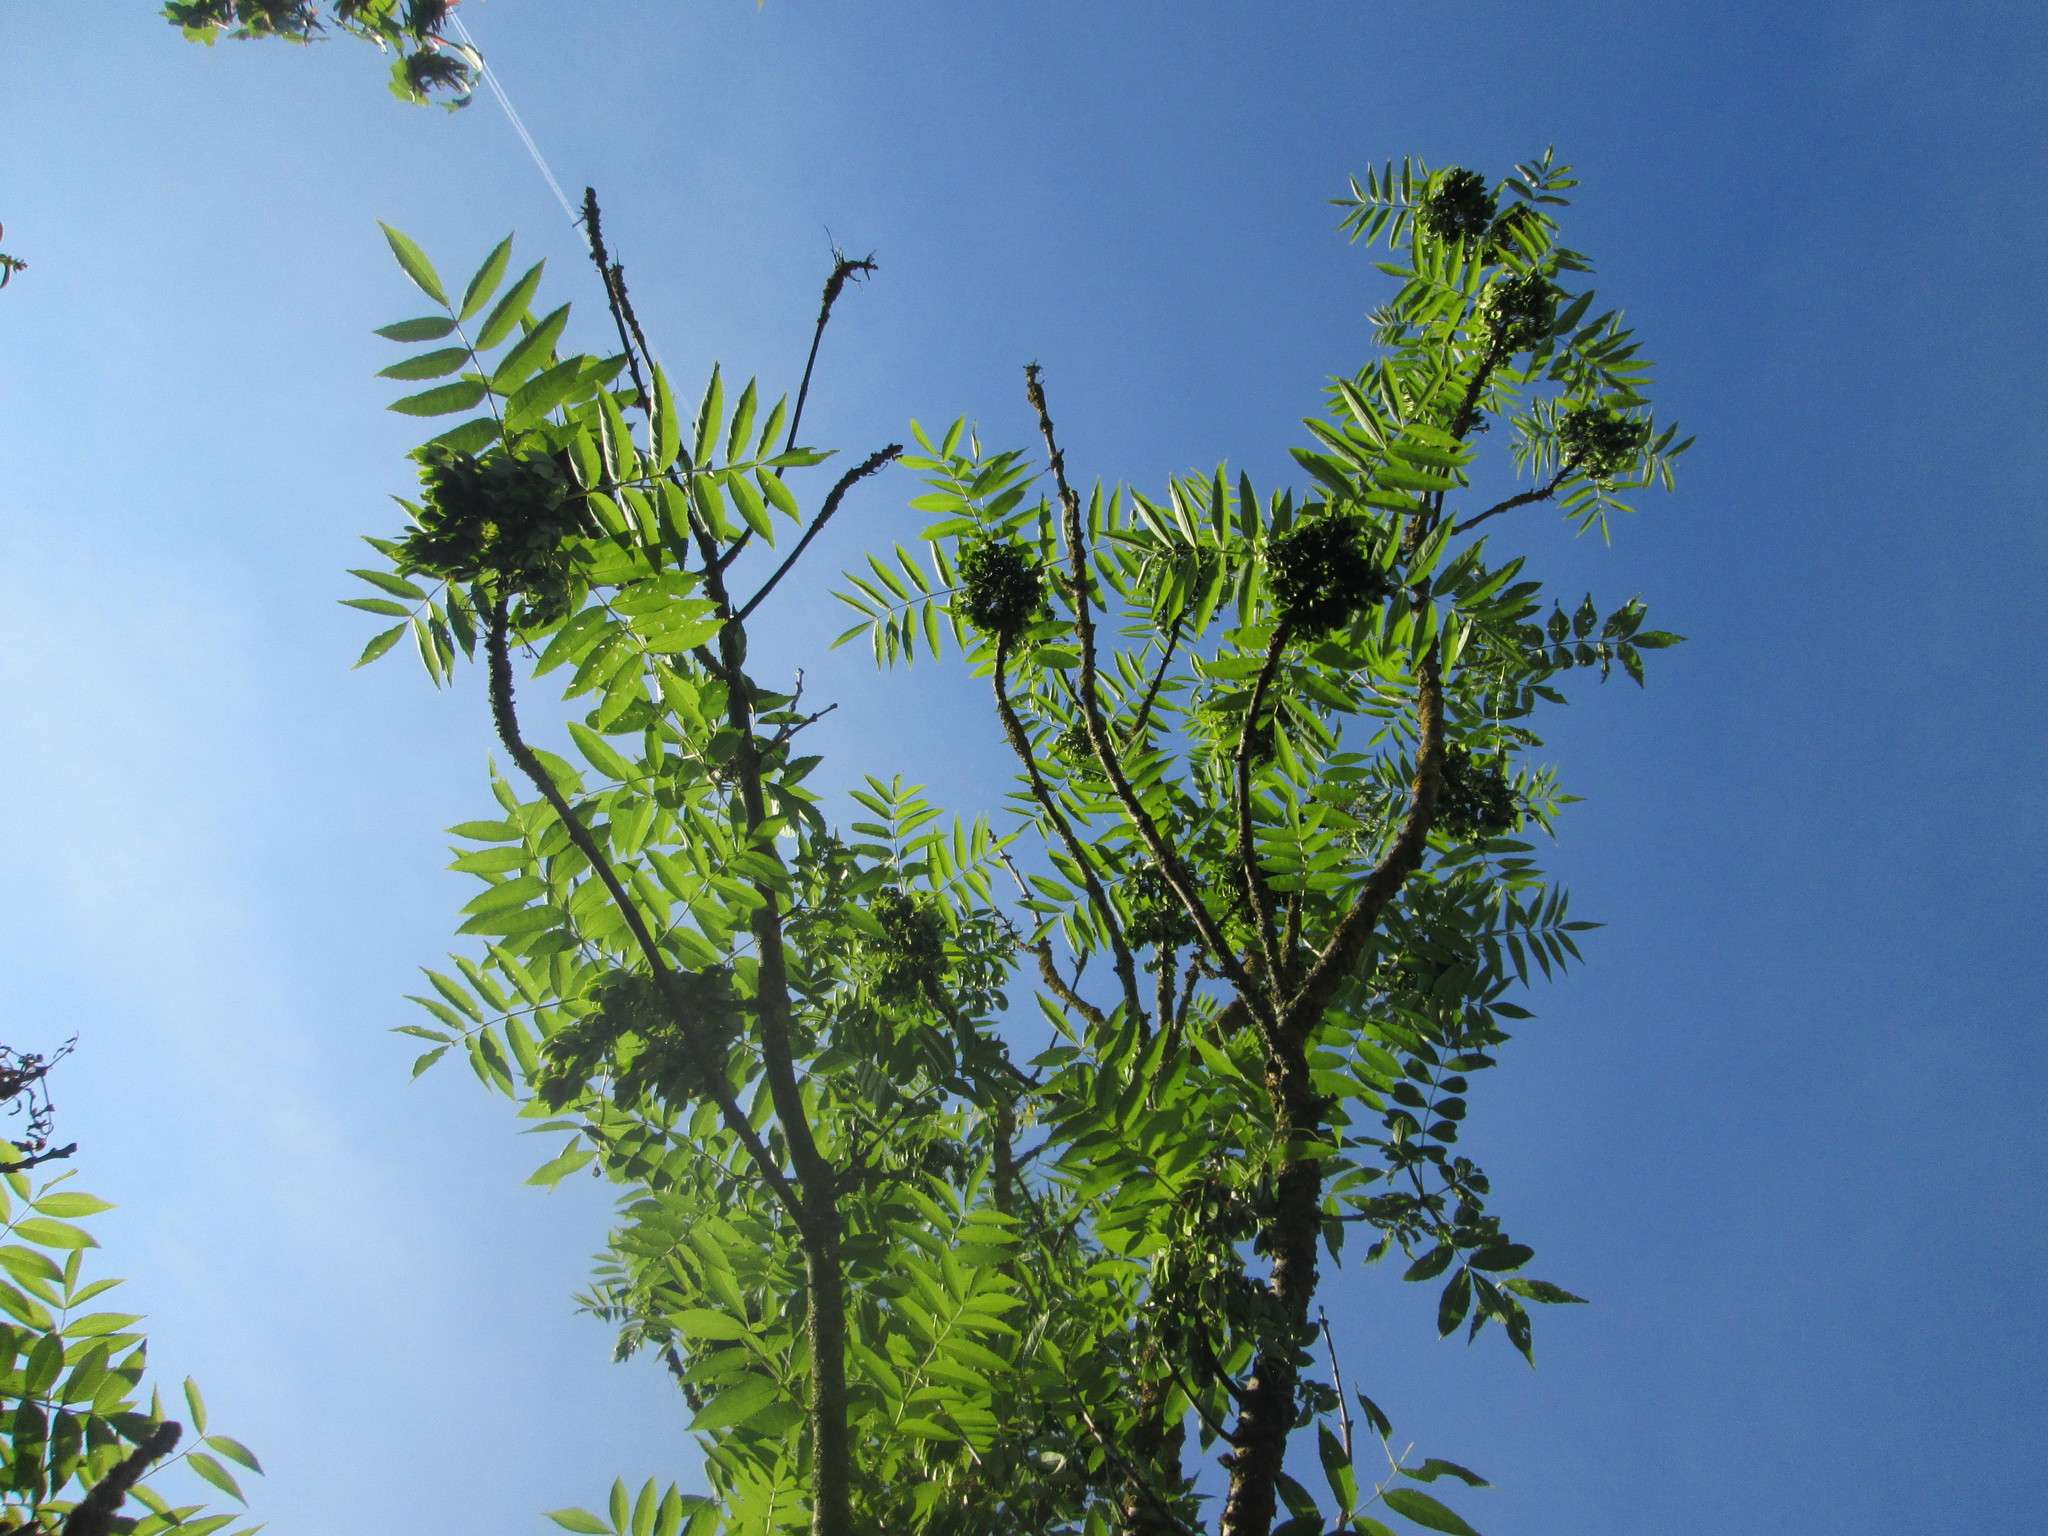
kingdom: Plantae
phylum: Tracheophyta
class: Magnoliopsida
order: Lamiales
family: Oleaceae
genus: Fraxinus
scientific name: Fraxinus excelsior
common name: European ash
